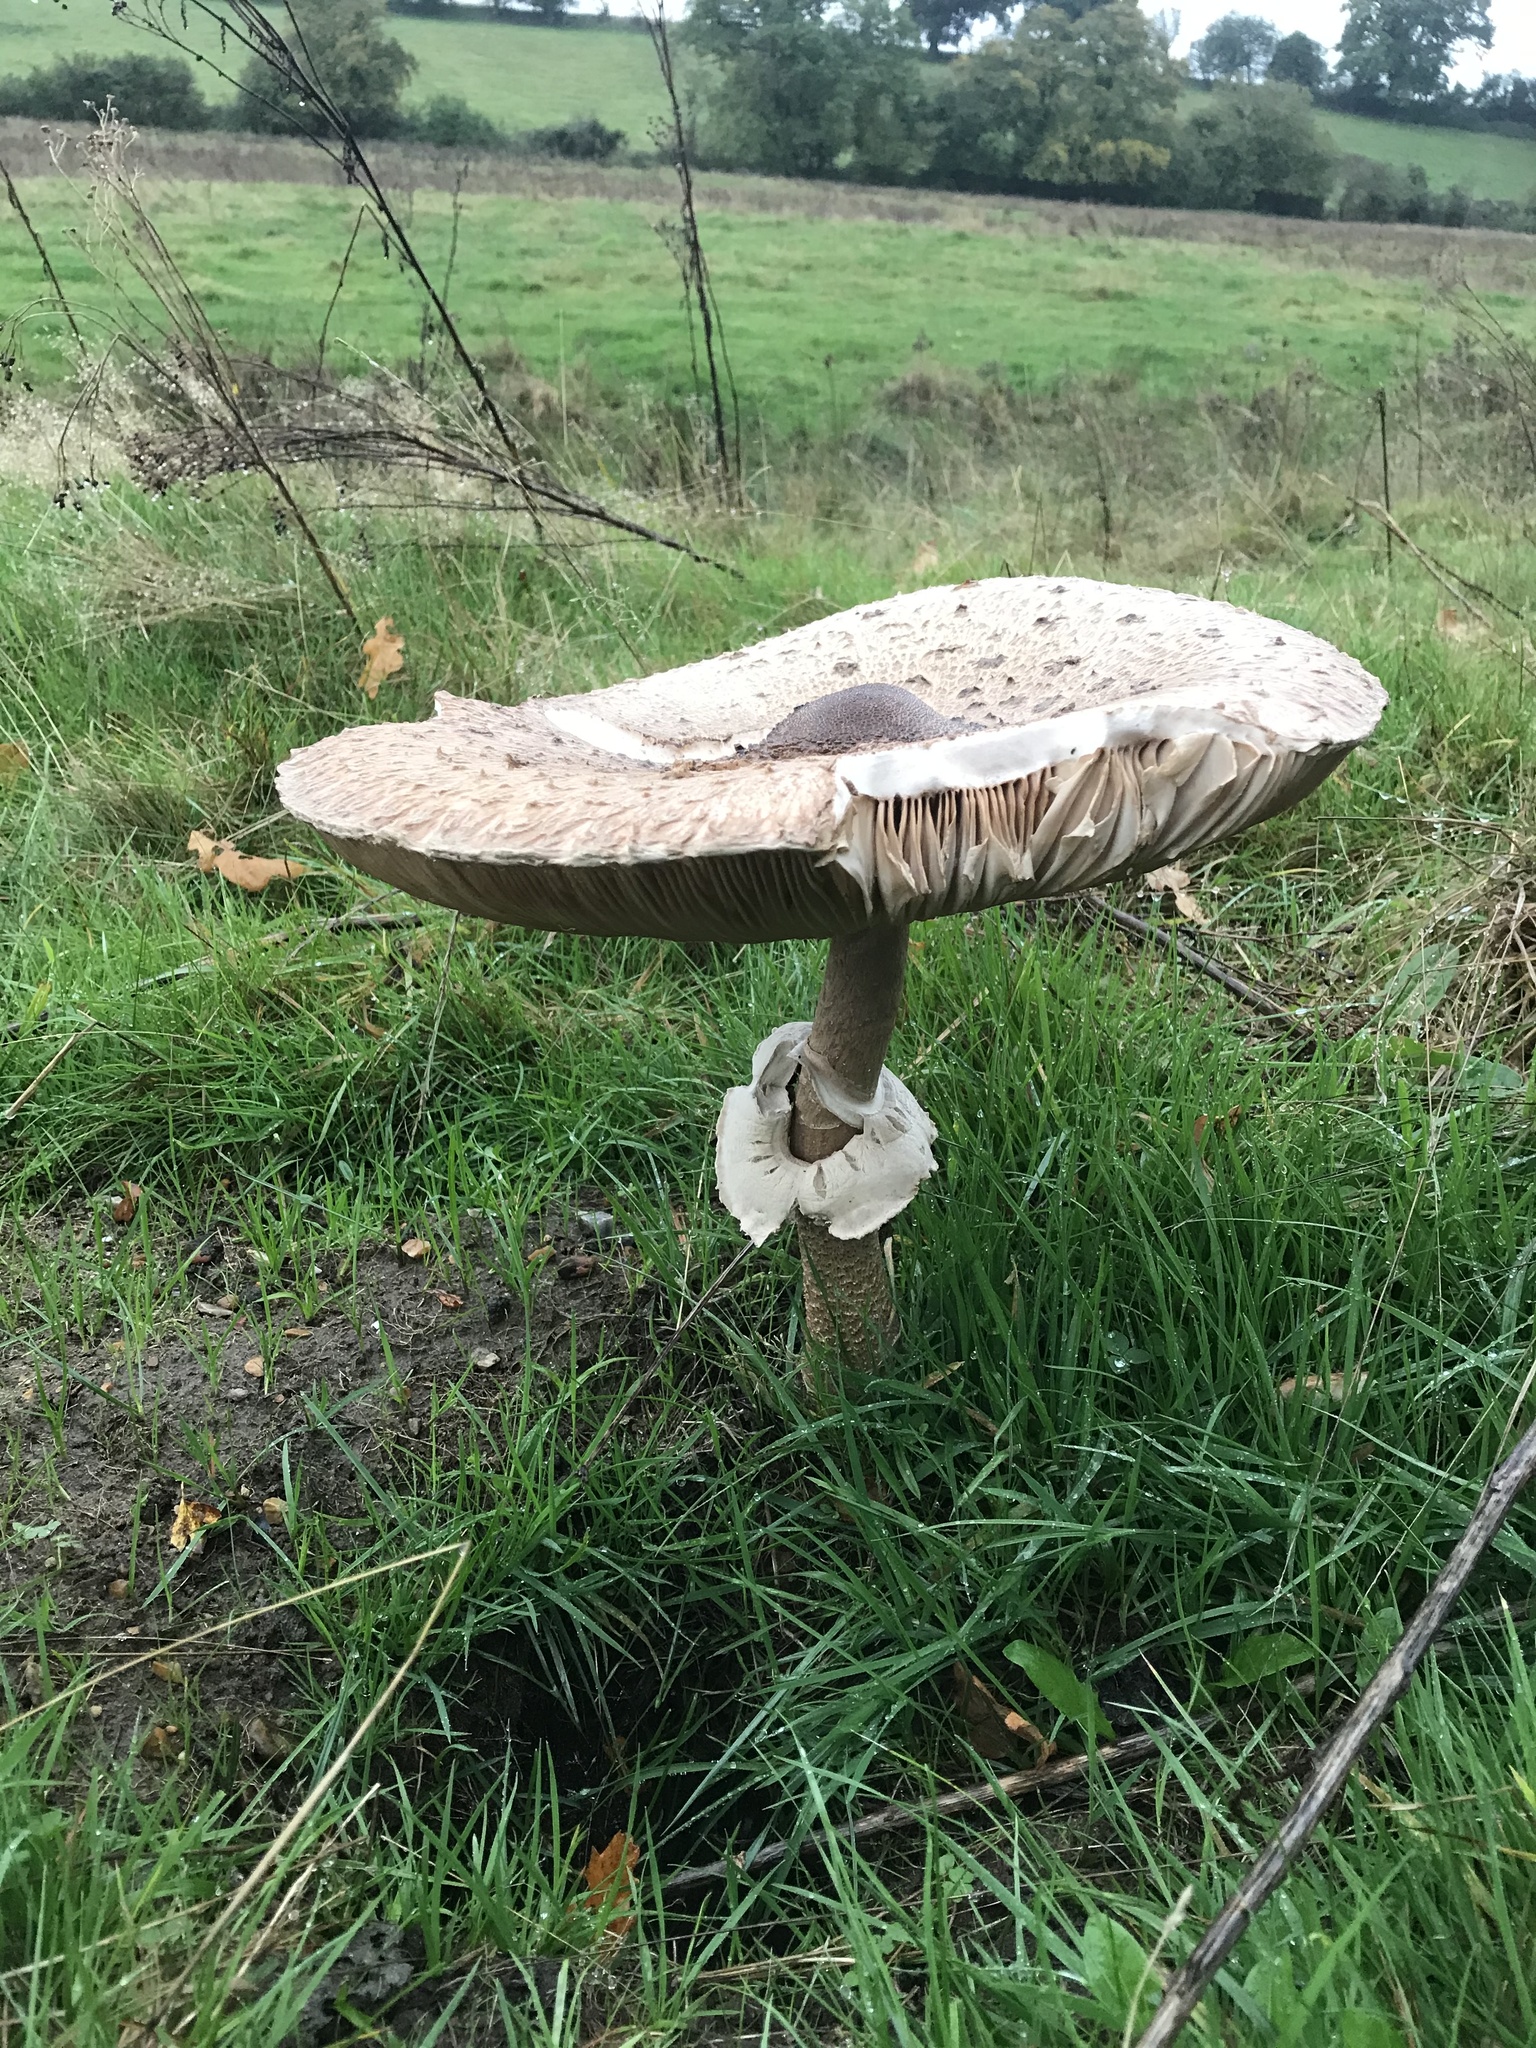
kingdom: Fungi
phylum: Basidiomycota
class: Agaricomycetes
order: Agaricales
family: Agaricaceae
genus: Macrolepiota
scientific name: Macrolepiota procera
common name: Parasol
